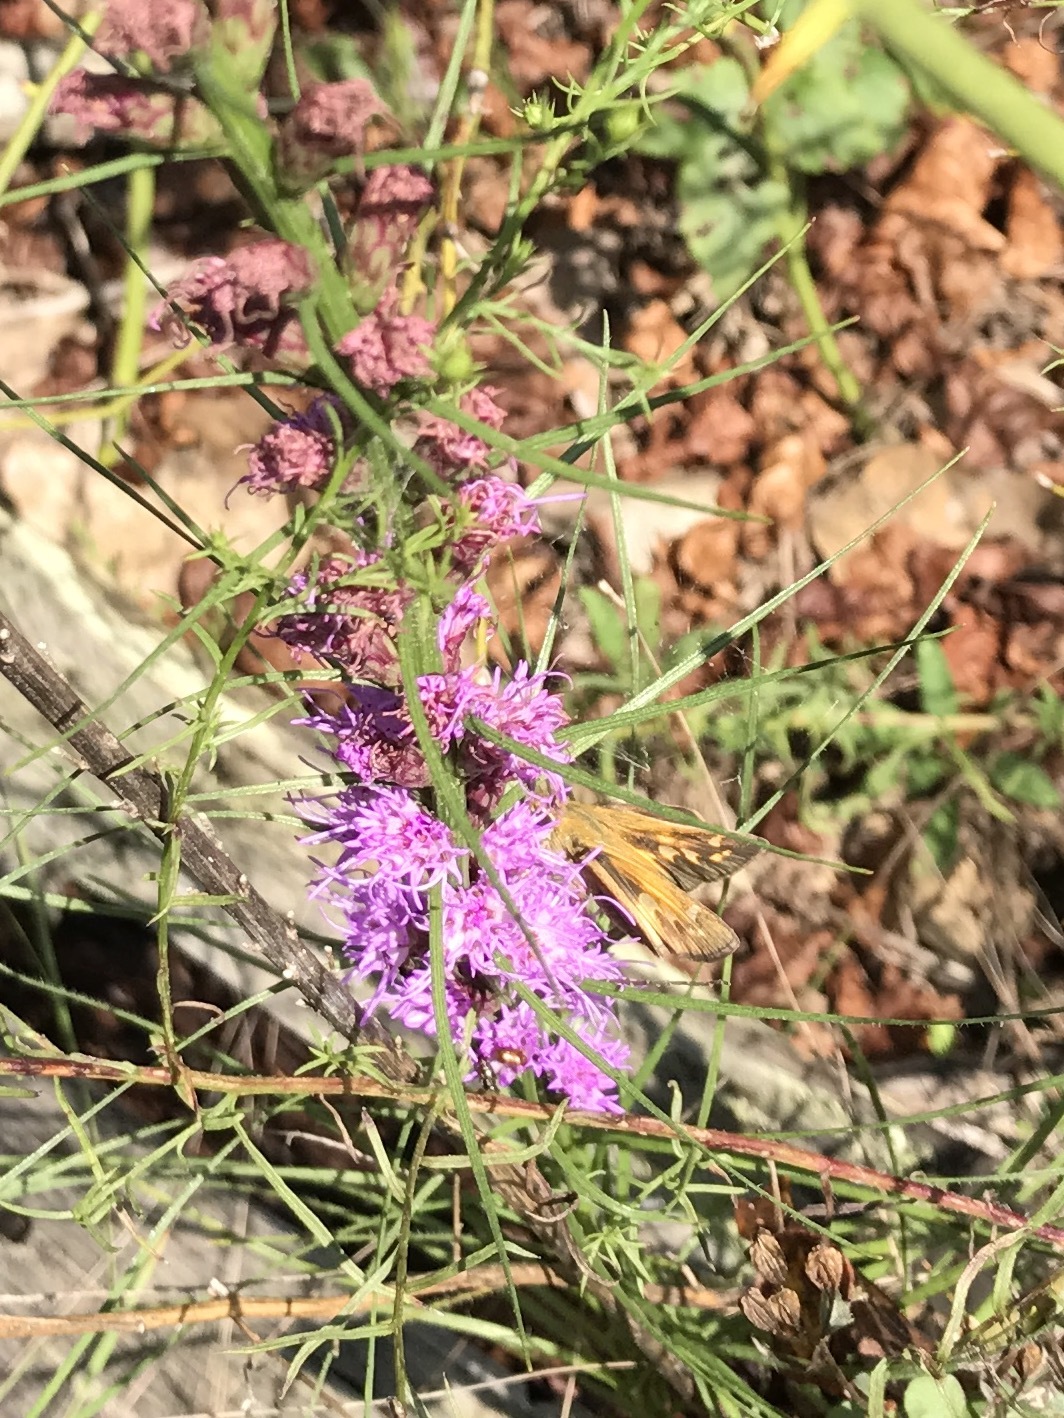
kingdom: Animalia
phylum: Arthropoda
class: Insecta
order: Lepidoptera
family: Hesperiidae
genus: Atalopedes
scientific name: Atalopedes
